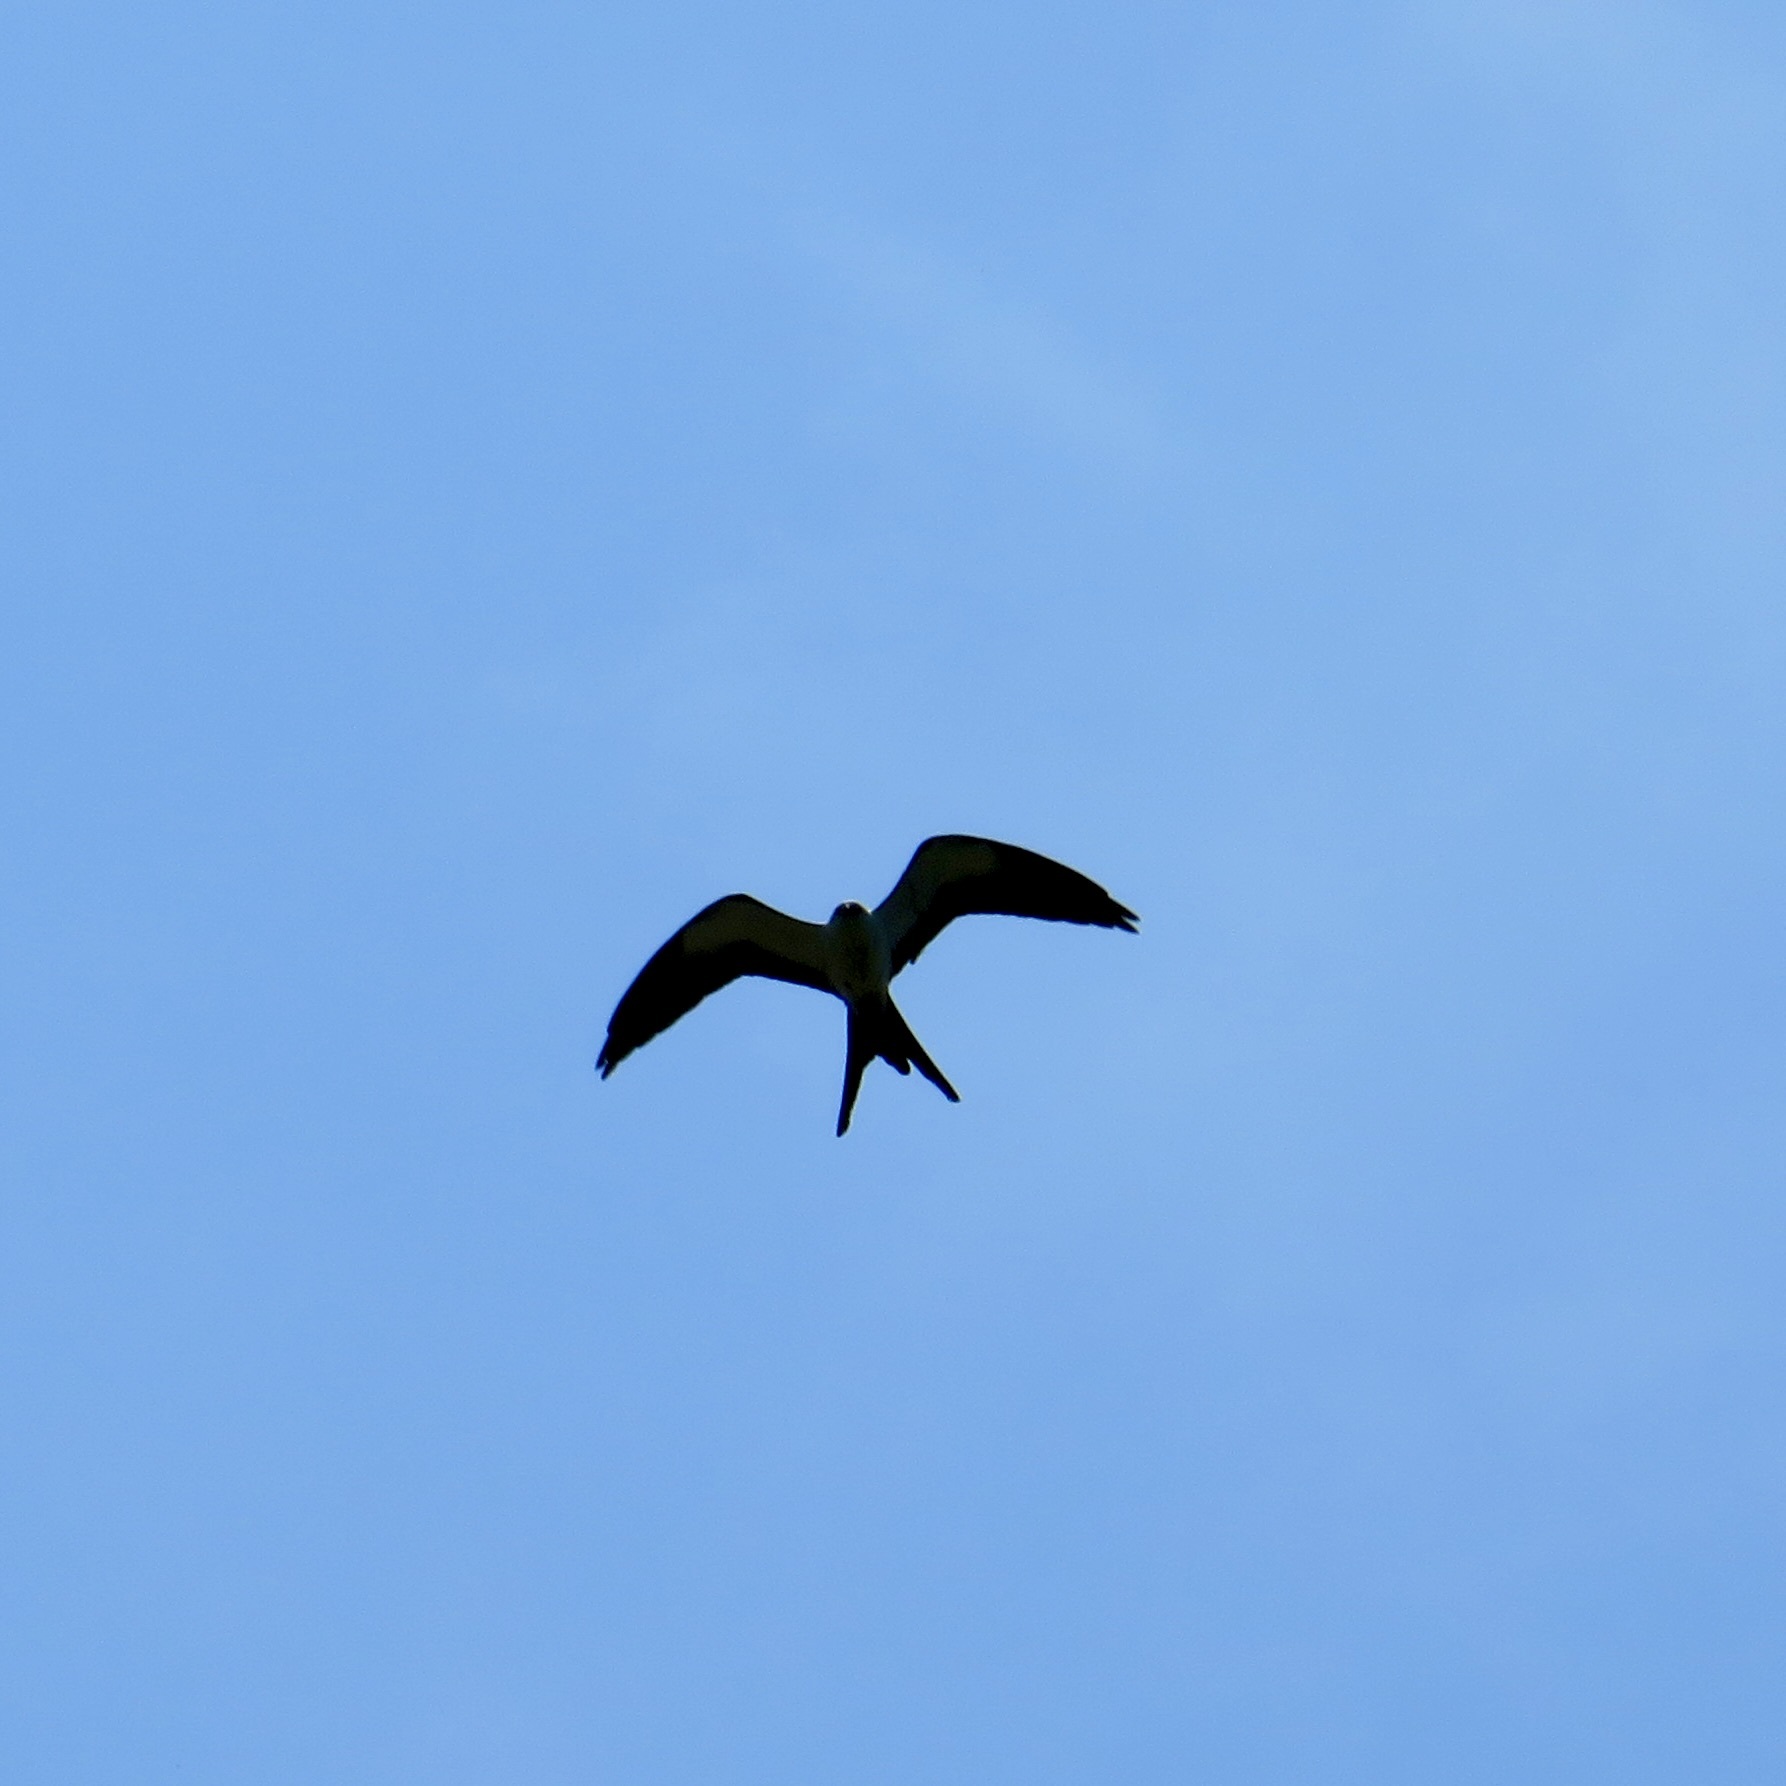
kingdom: Animalia
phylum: Chordata
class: Aves
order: Accipitriformes
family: Accipitridae
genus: Elanoides
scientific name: Elanoides forficatus
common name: Swallow-tailed kite
